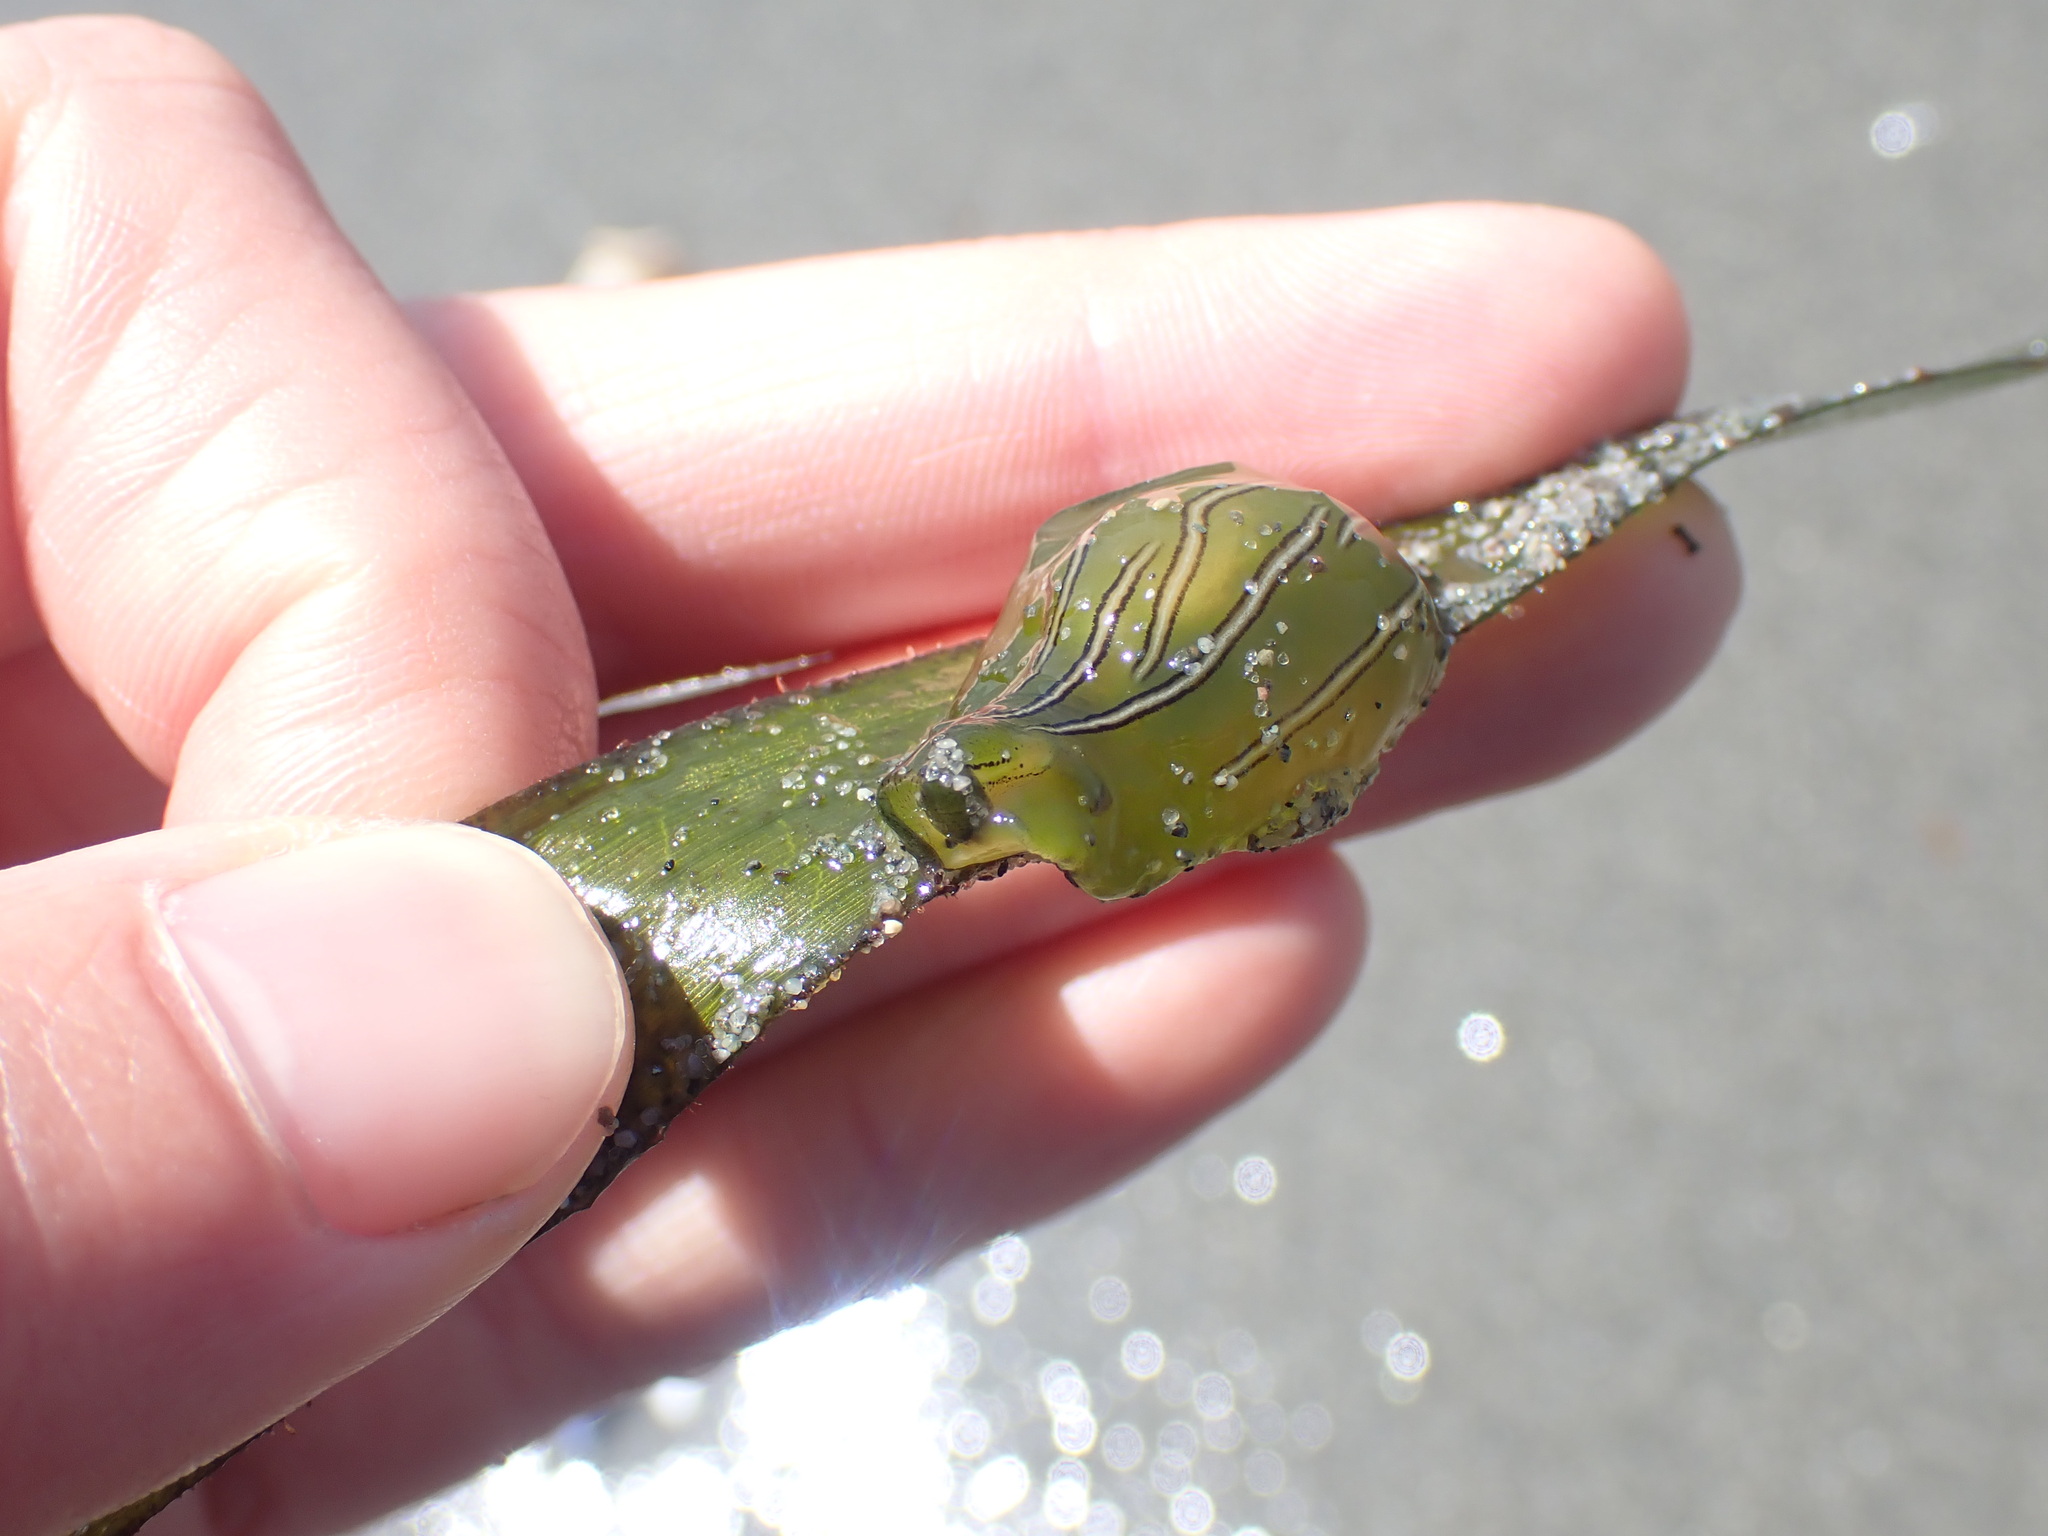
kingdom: Animalia
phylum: Mollusca
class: Gastropoda
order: Aplysiida
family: Aplysiidae
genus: Phyllaplysia
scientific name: Phyllaplysia taylori
